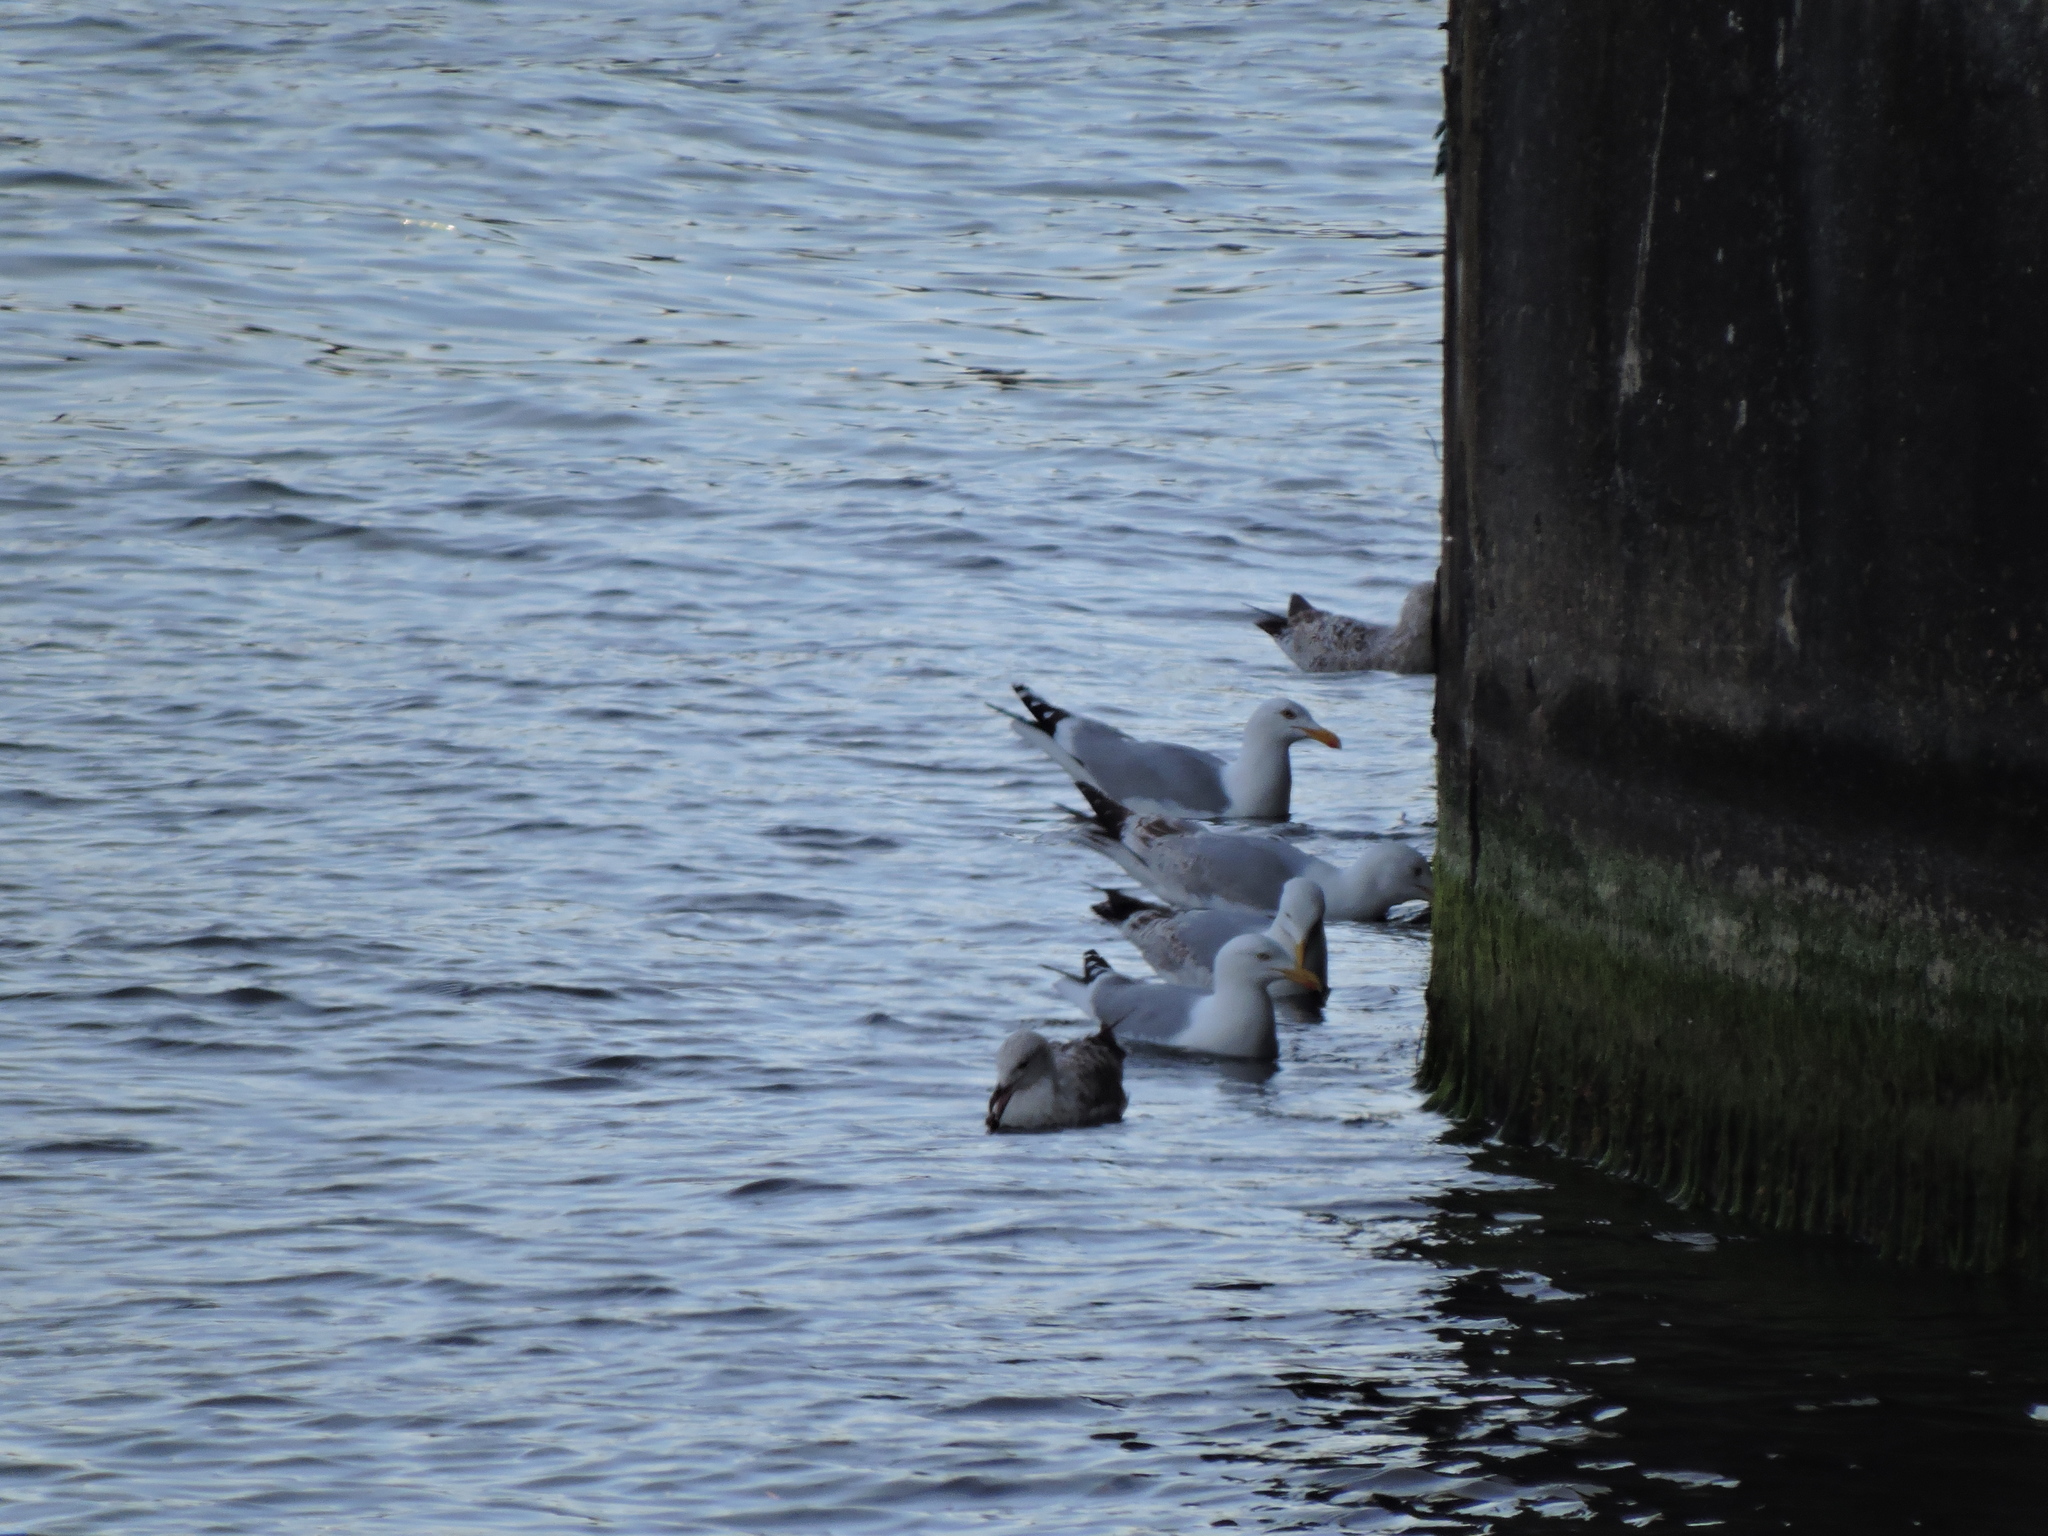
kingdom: Animalia
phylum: Chordata
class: Aves
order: Charadriiformes
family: Laridae
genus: Larus
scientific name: Larus argentatus
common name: Herring gull
